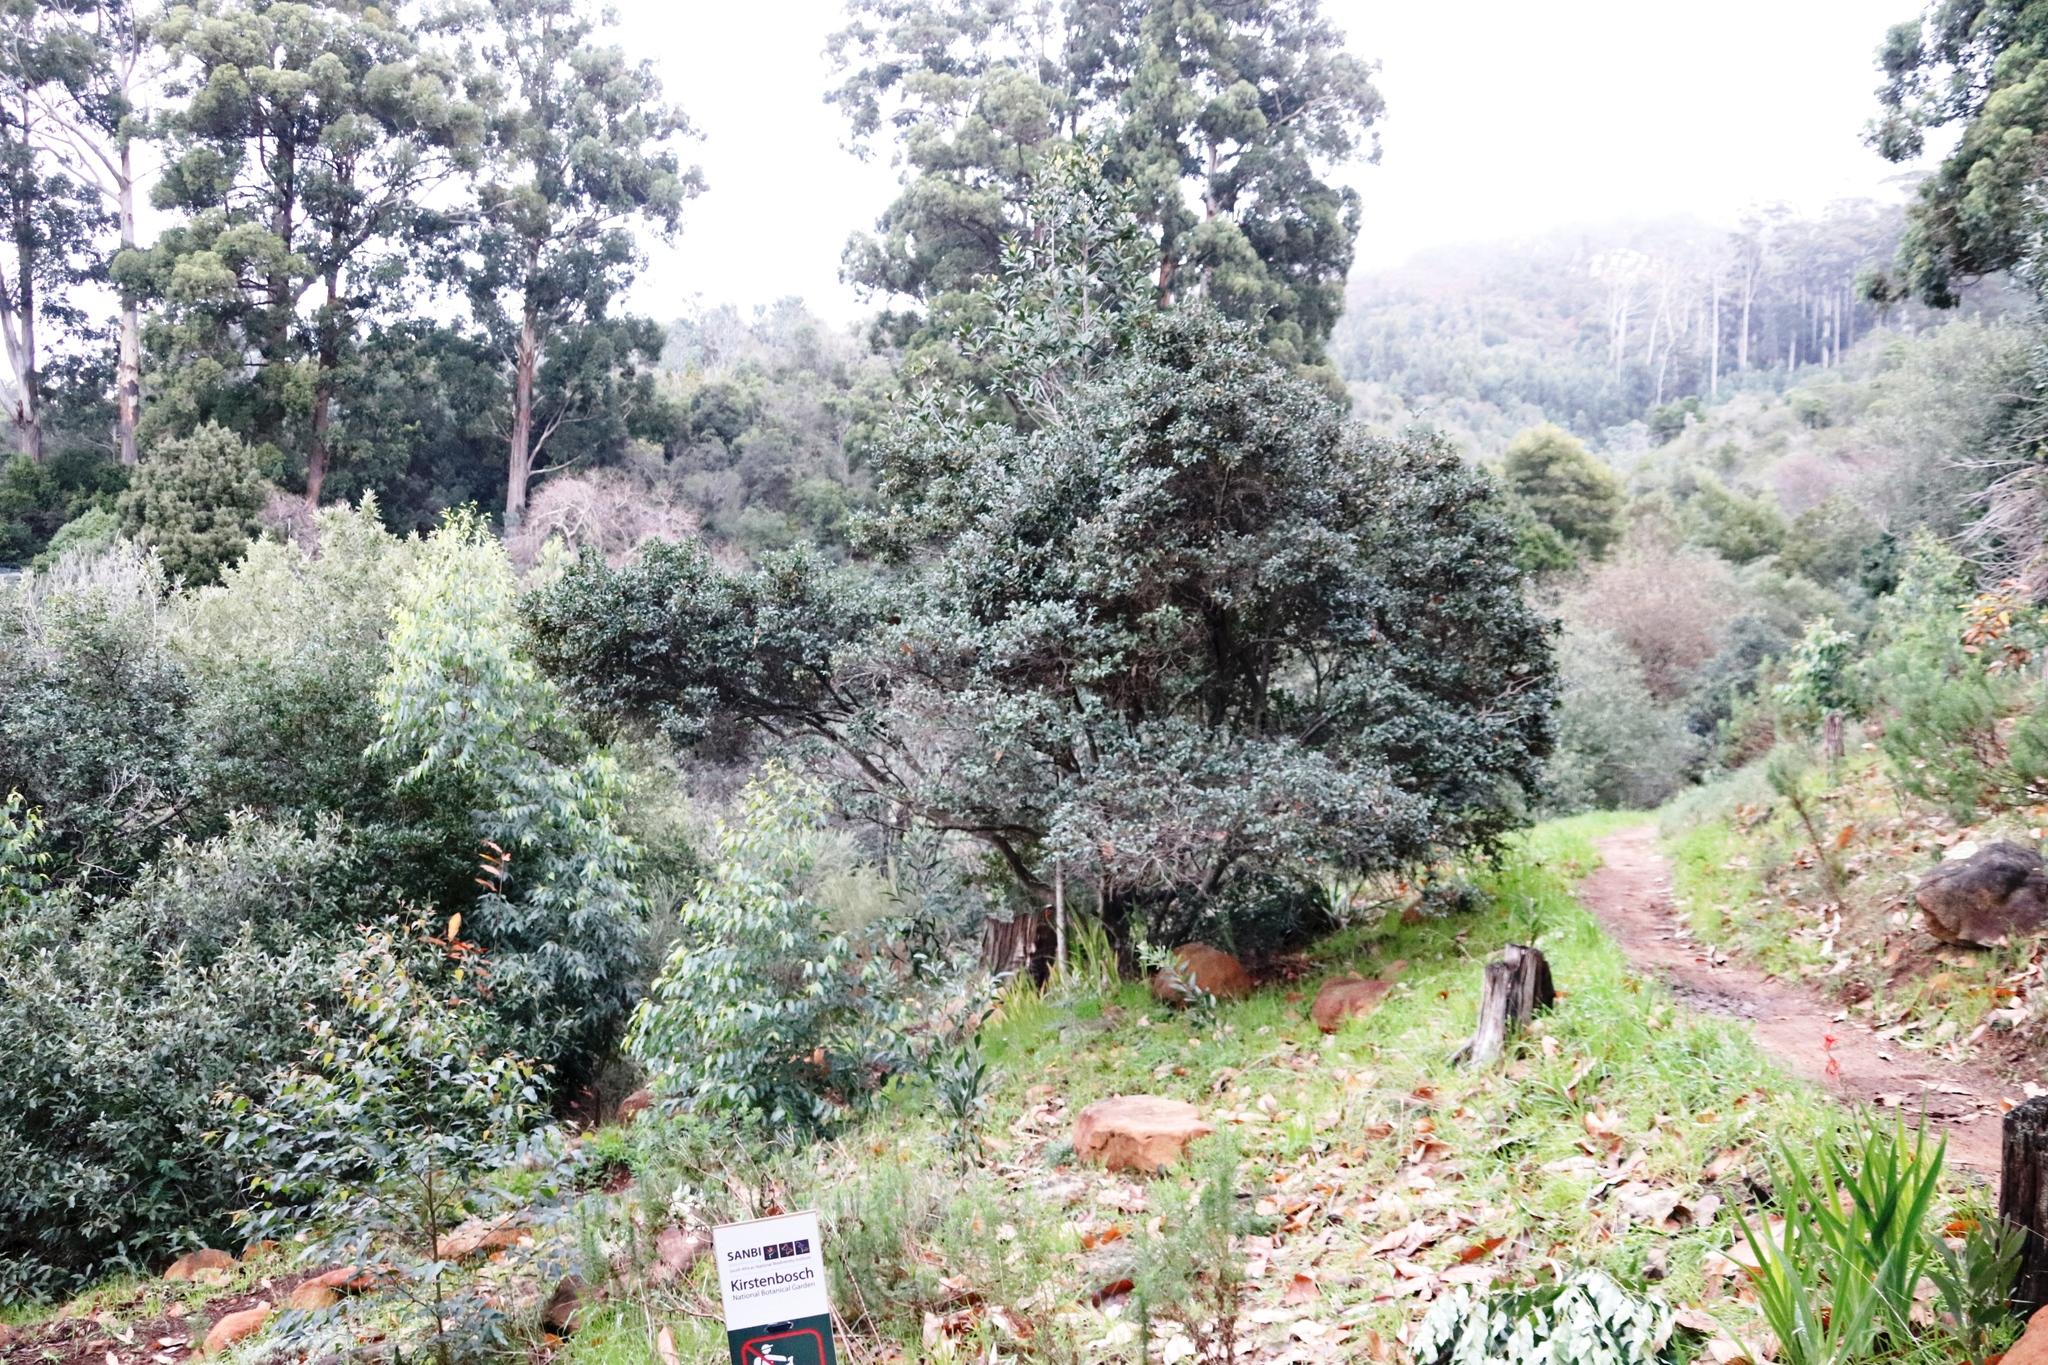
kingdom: Plantae
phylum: Tracheophyta
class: Magnoliopsida
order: Ericales
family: Ebenaceae
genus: Diospyros
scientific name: Diospyros whyteana
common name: Bladder-nut
